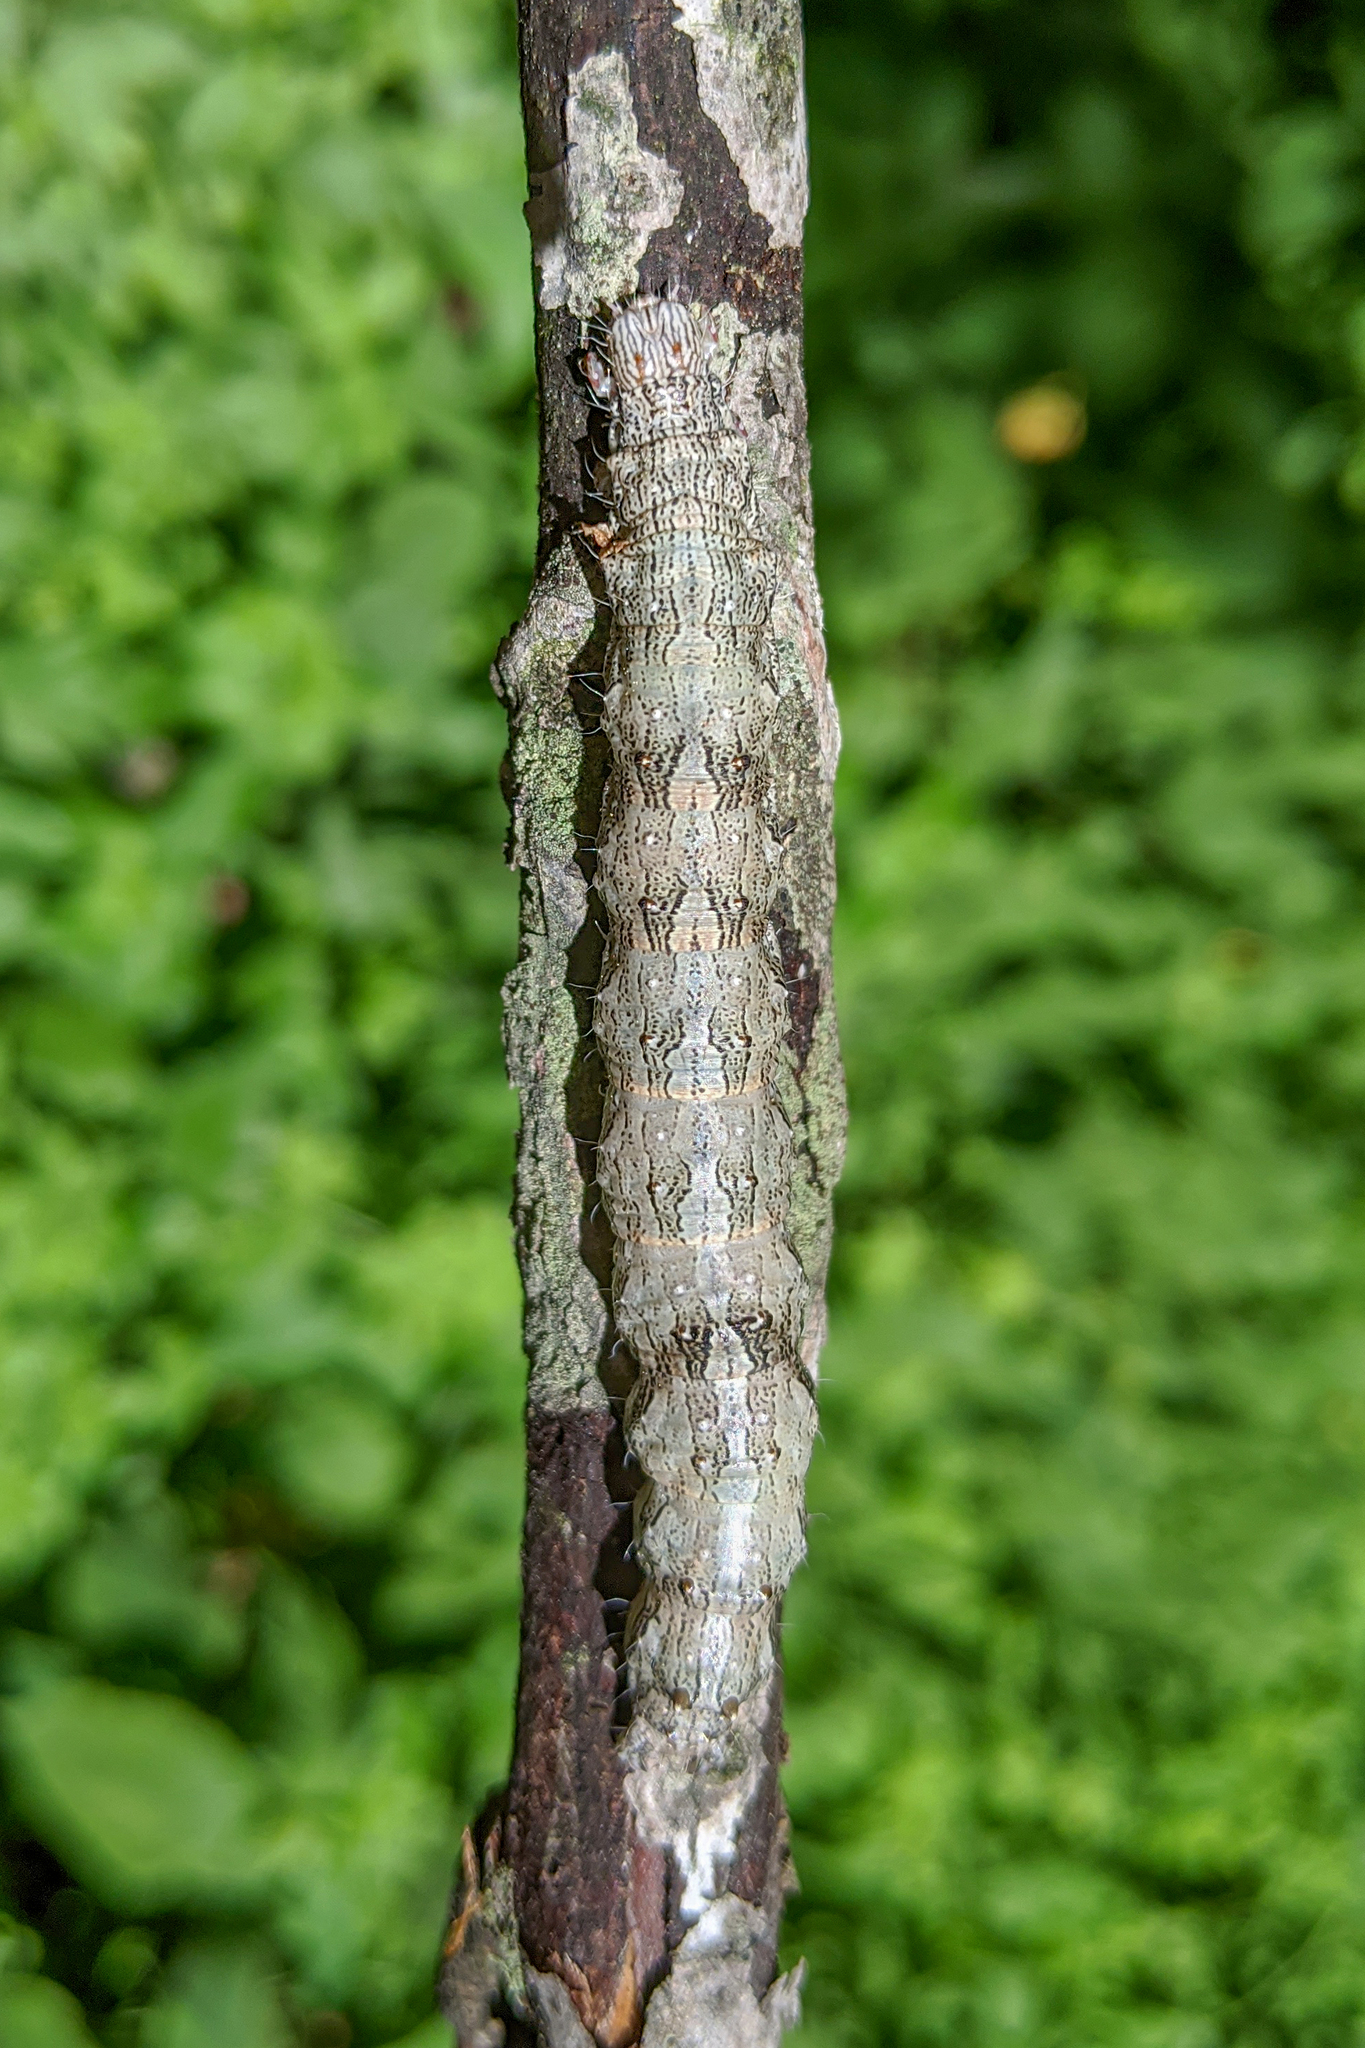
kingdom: Animalia
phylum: Arthropoda
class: Insecta
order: Lepidoptera
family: Erebidae
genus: Catocala
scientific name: Catocala nebulosa
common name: Clouded underwing
